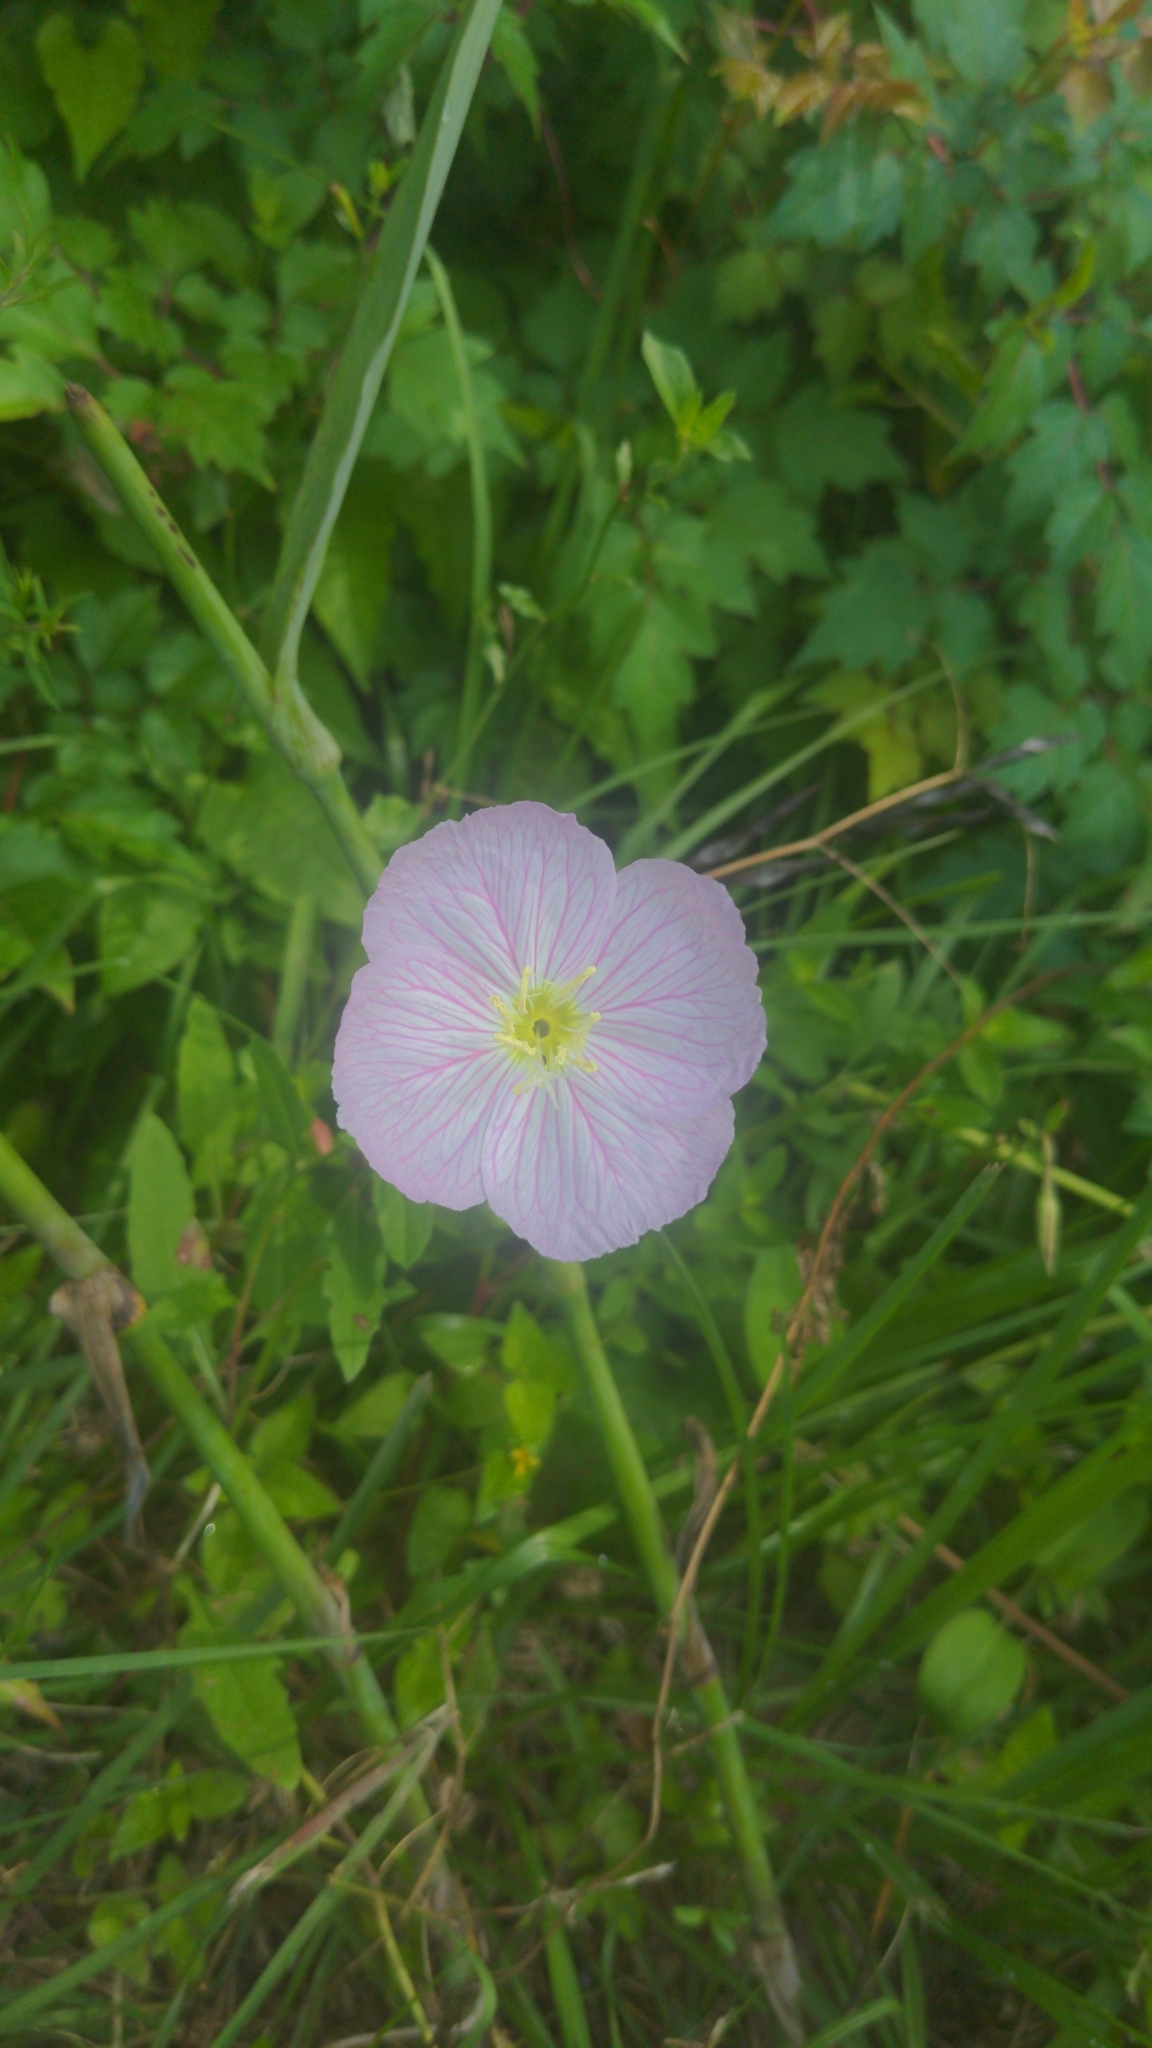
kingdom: Plantae
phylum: Tracheophyta
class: Magnoliopsida
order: Myrtales
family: Onagraceae
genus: Oenothera
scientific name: Oenothera speciosa
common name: White evening-primrose
